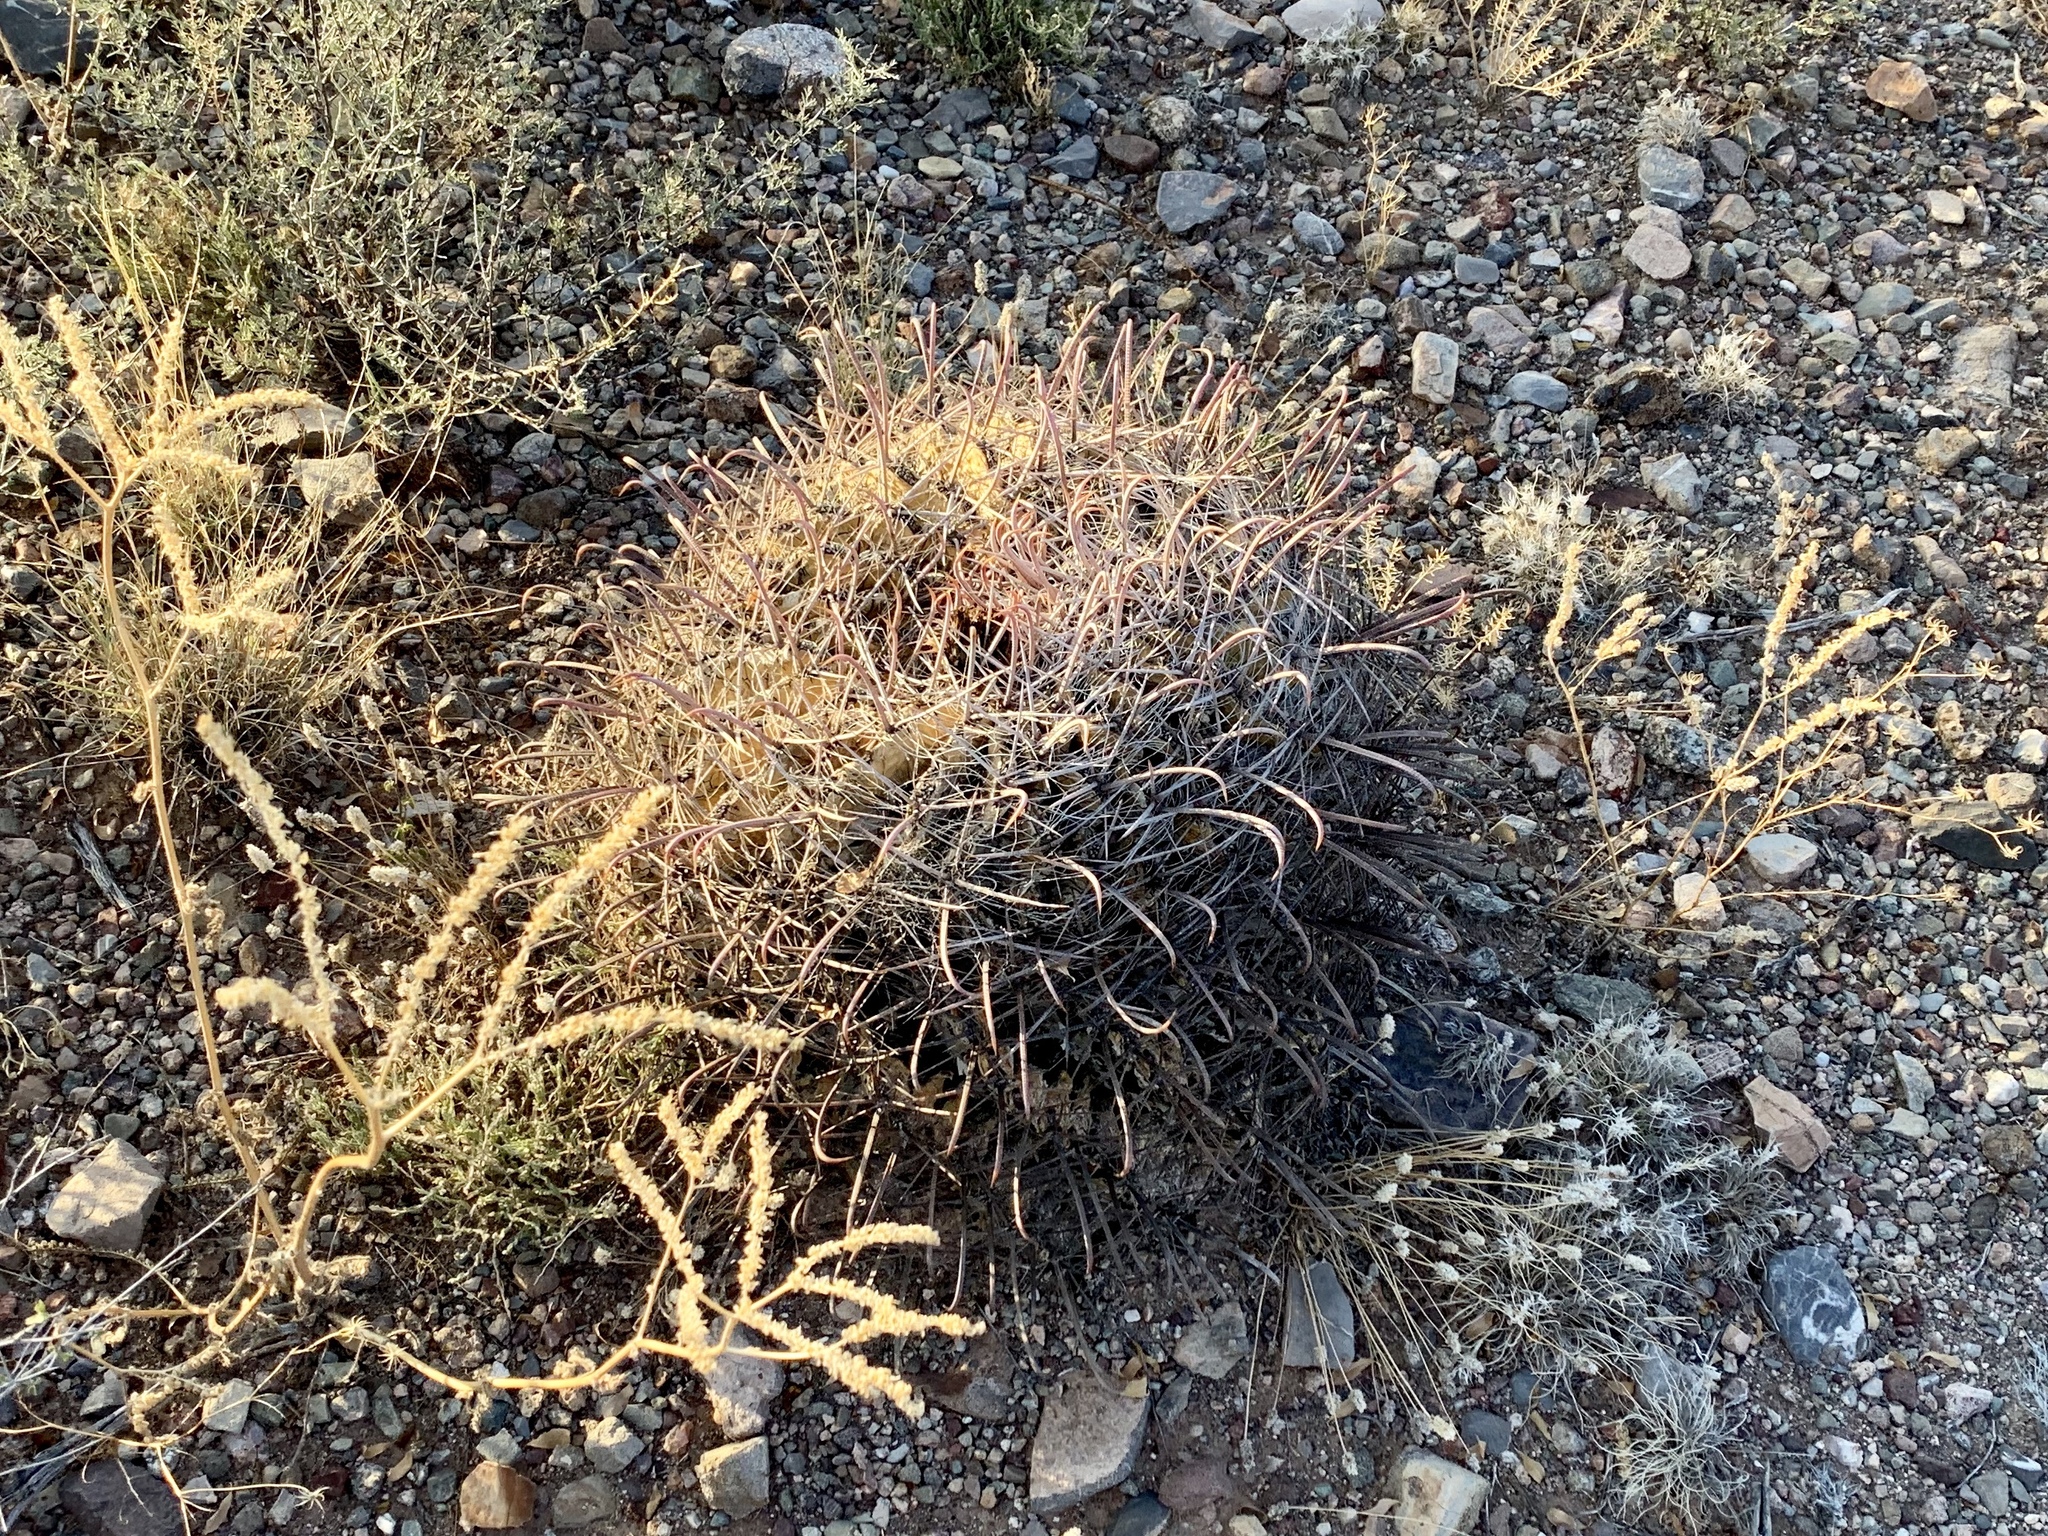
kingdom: Plantae
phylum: Tracheophyta
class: Magnoliopsida
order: Caryophyllales
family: Cactaceae
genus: Ferocactus
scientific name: Ferocactus wislizeni
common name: Candy barrel cactus
